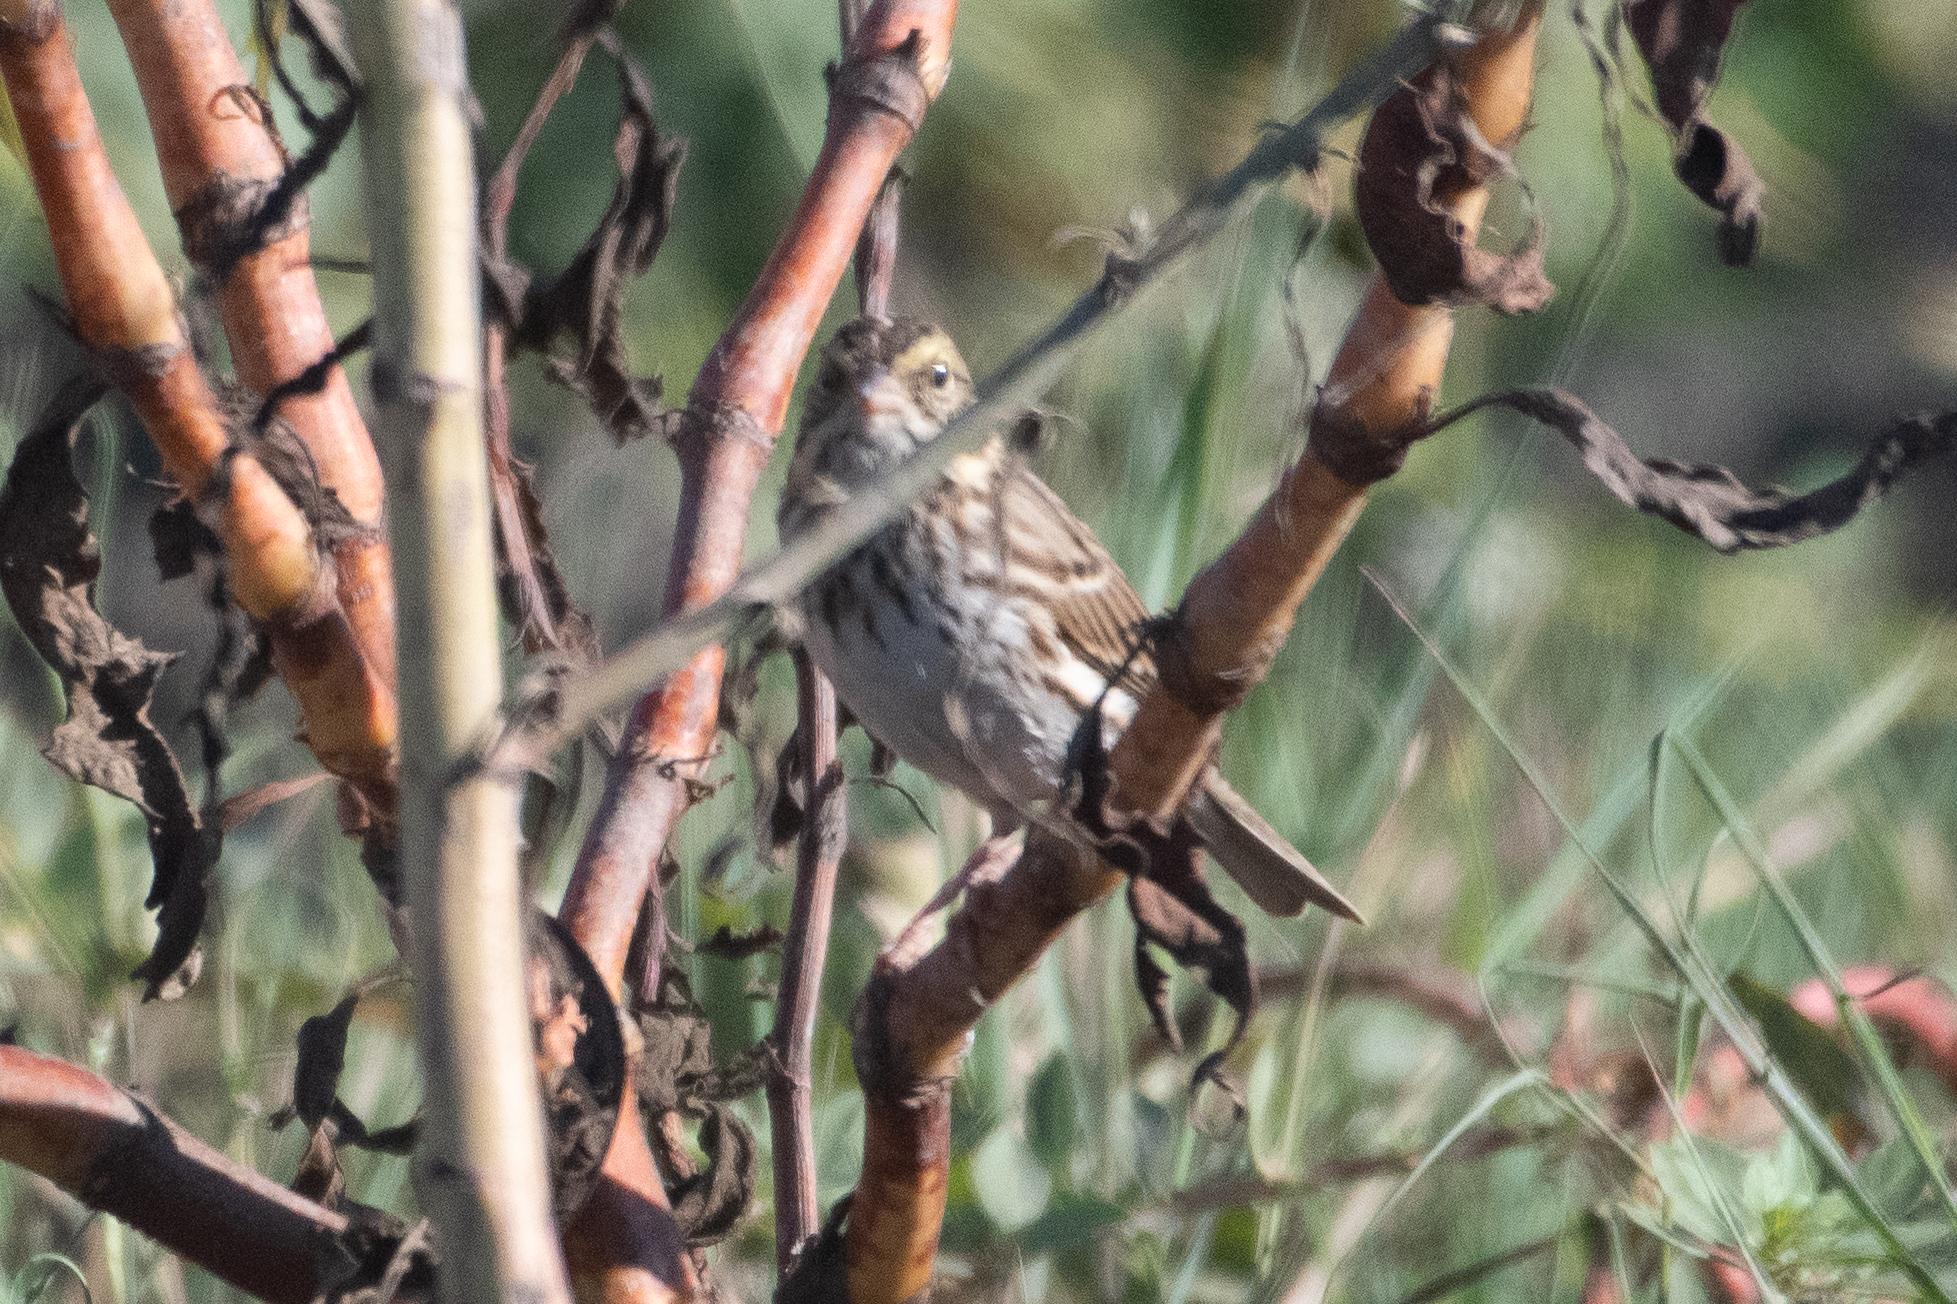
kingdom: Animalia
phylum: Chordata
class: Aves
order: Passeriformes
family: Passerellidae
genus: Passerculus
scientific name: Passerculus sandwichensis
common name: Savannah sparrow
